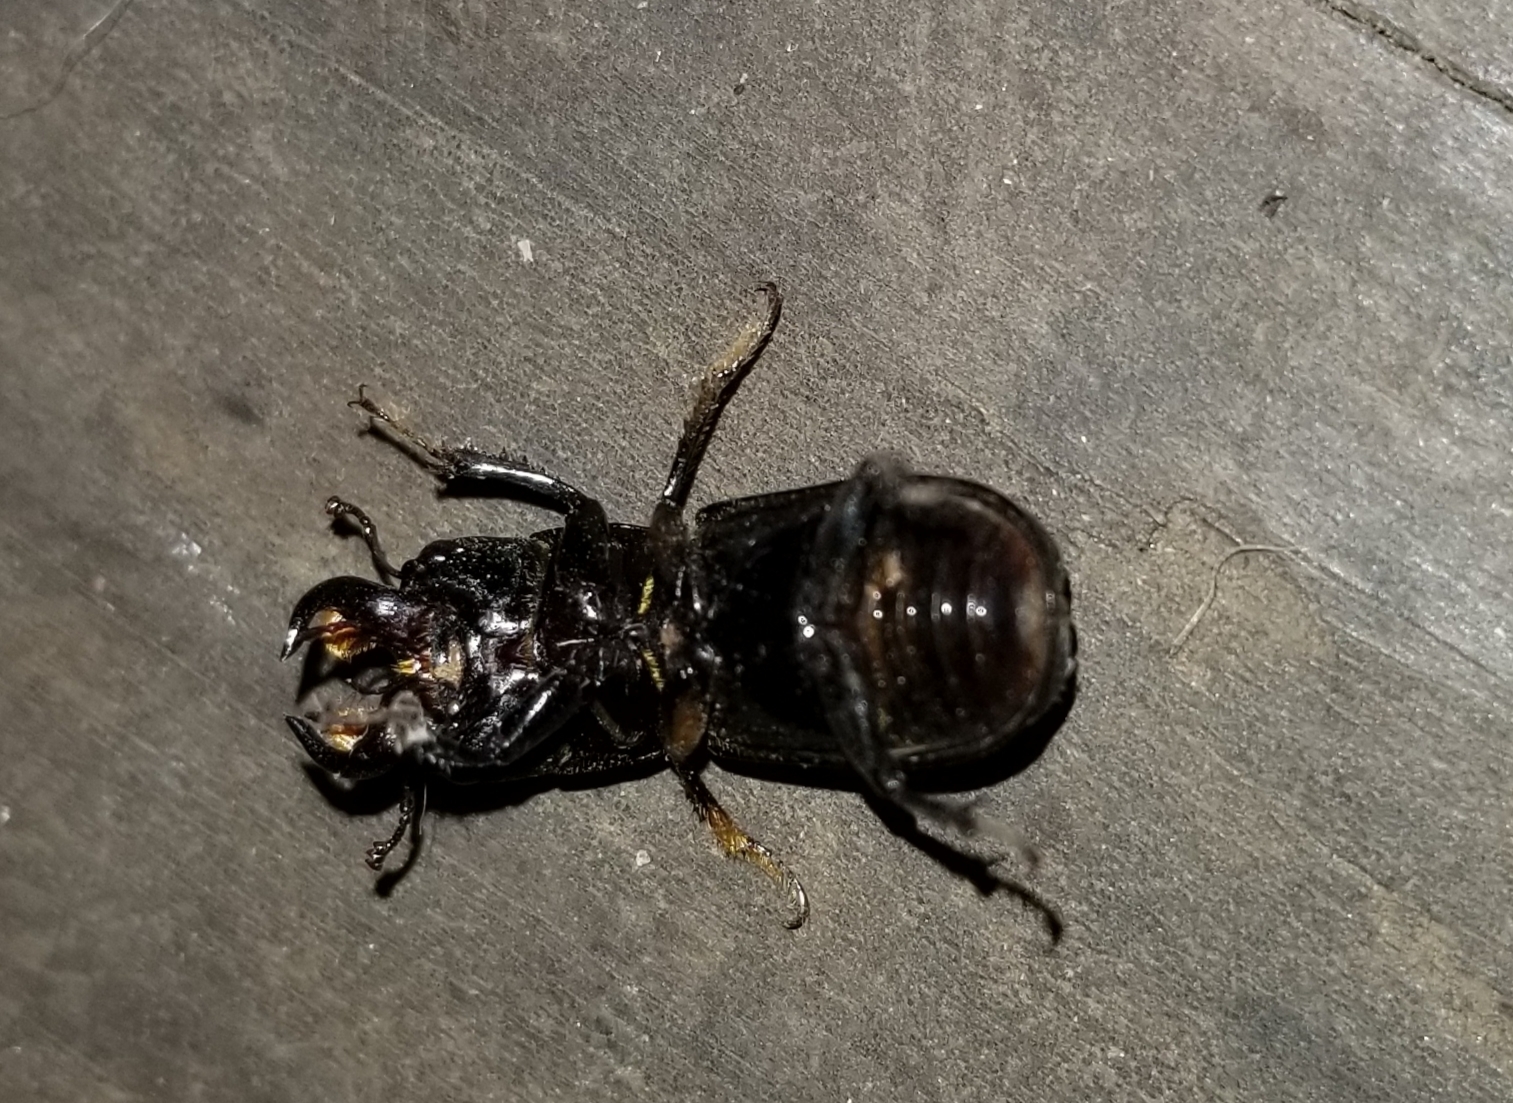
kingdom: Animalia
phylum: Arthropoda
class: Insecta
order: Coleoptera
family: Lucanidae
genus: Ceruchus
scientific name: Ceruchus striatus
